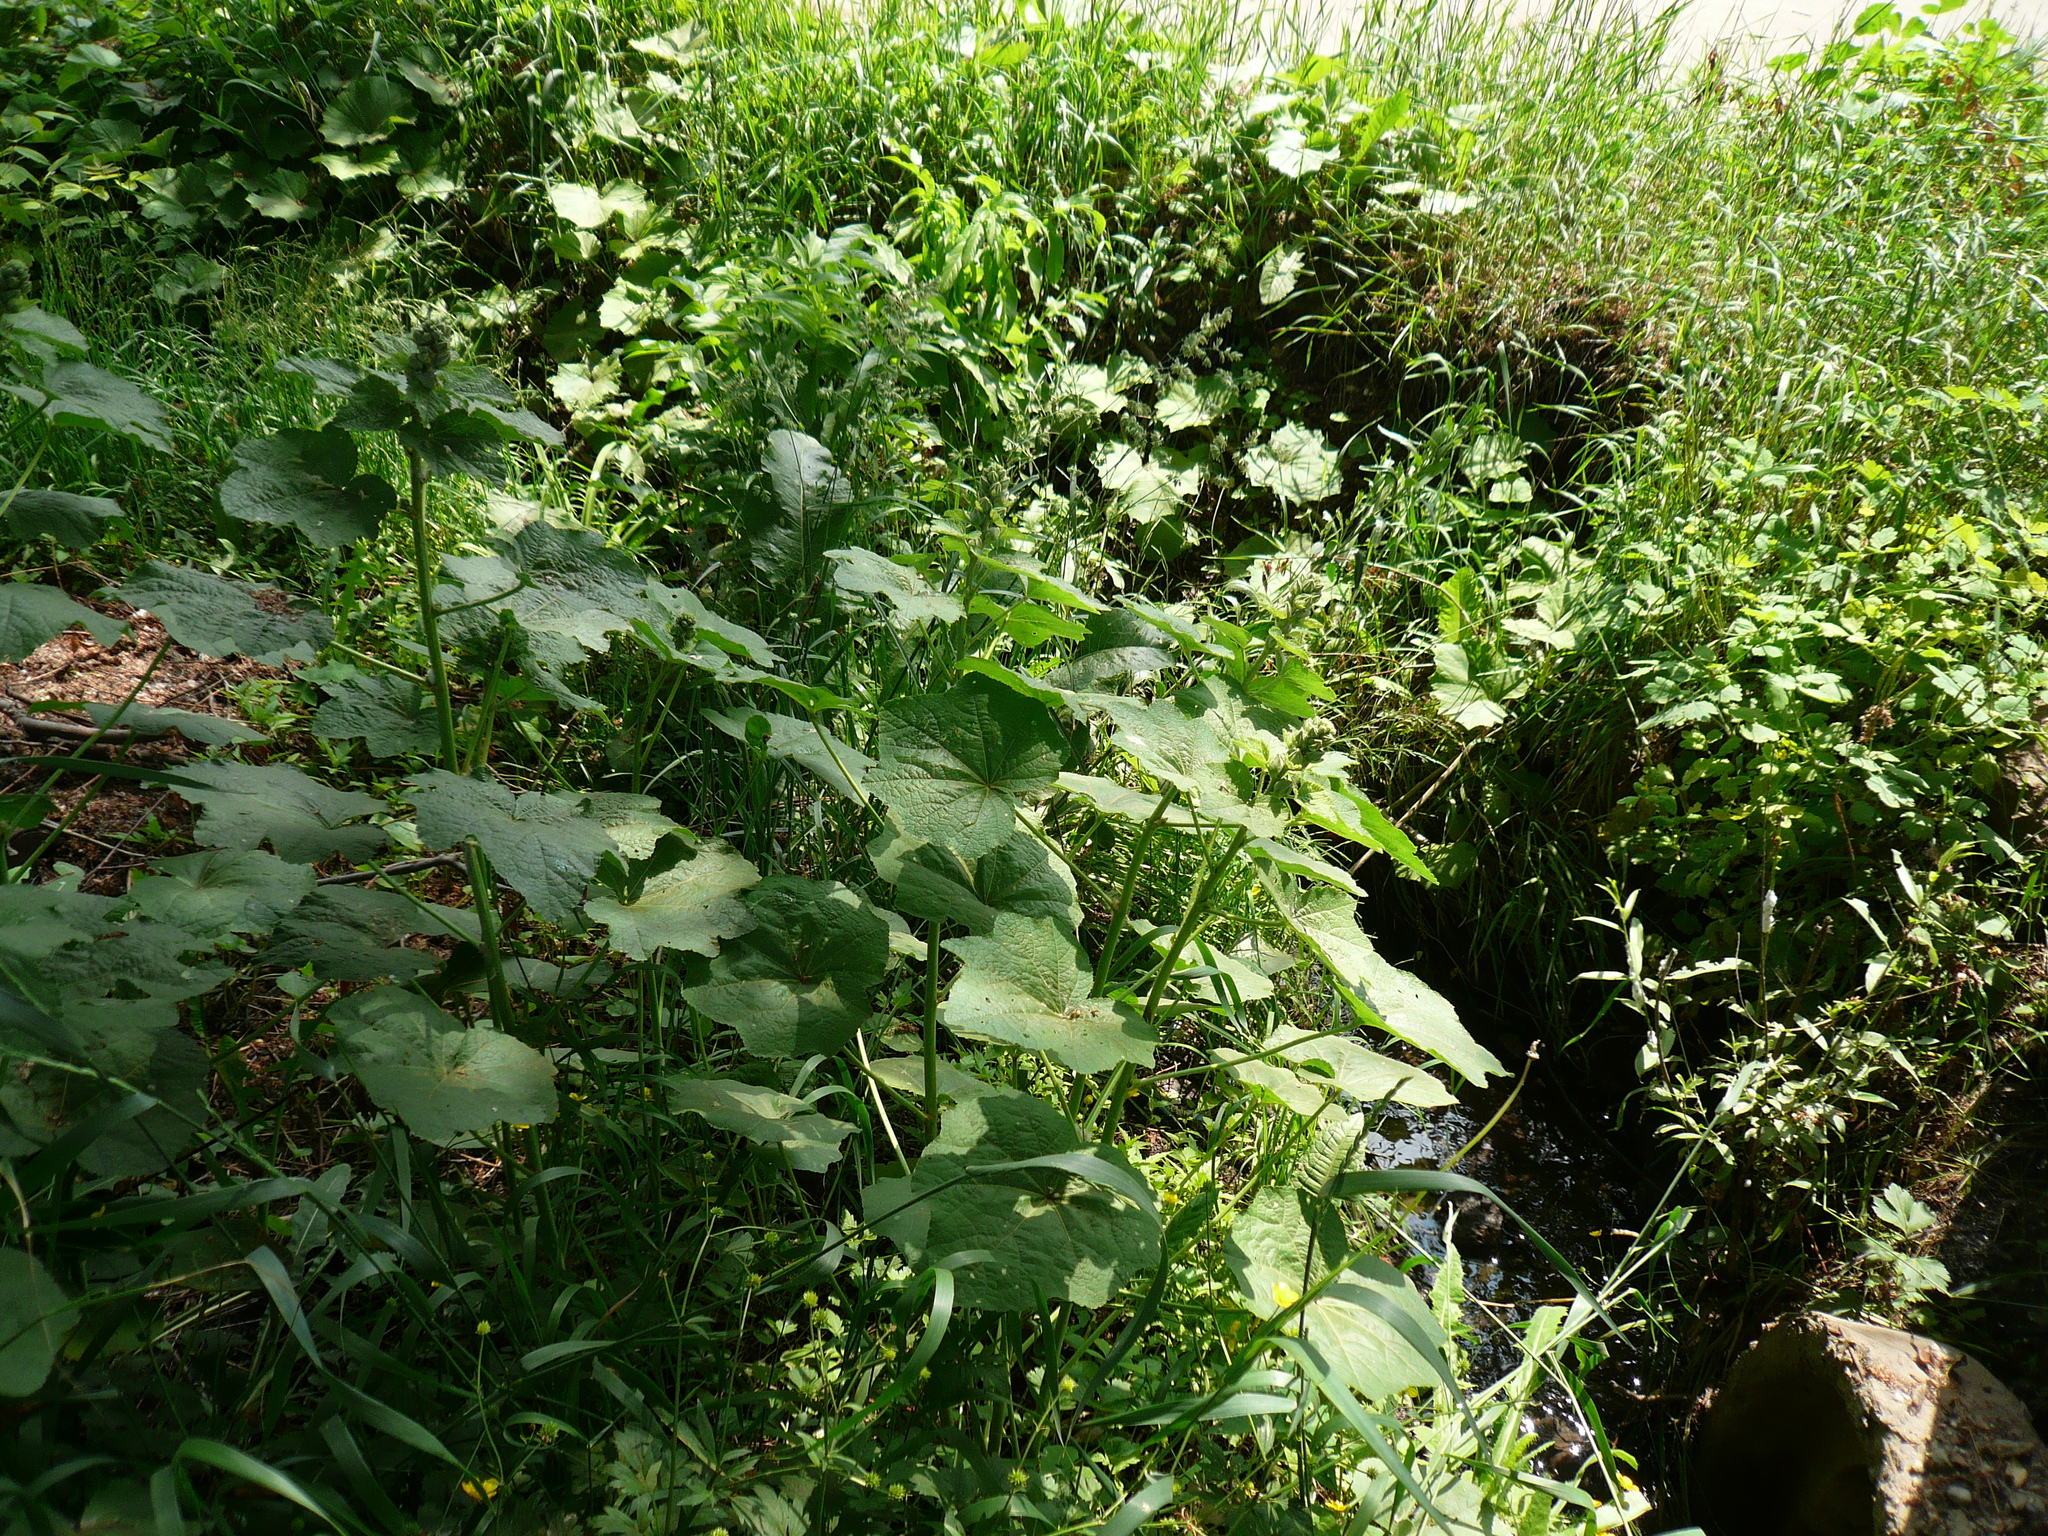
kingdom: Plantae
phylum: Tracheophyta
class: Magnoliopsida
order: Malvales
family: Malvaceae
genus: Alcea
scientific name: Alcea rosea
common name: Hollyhock
